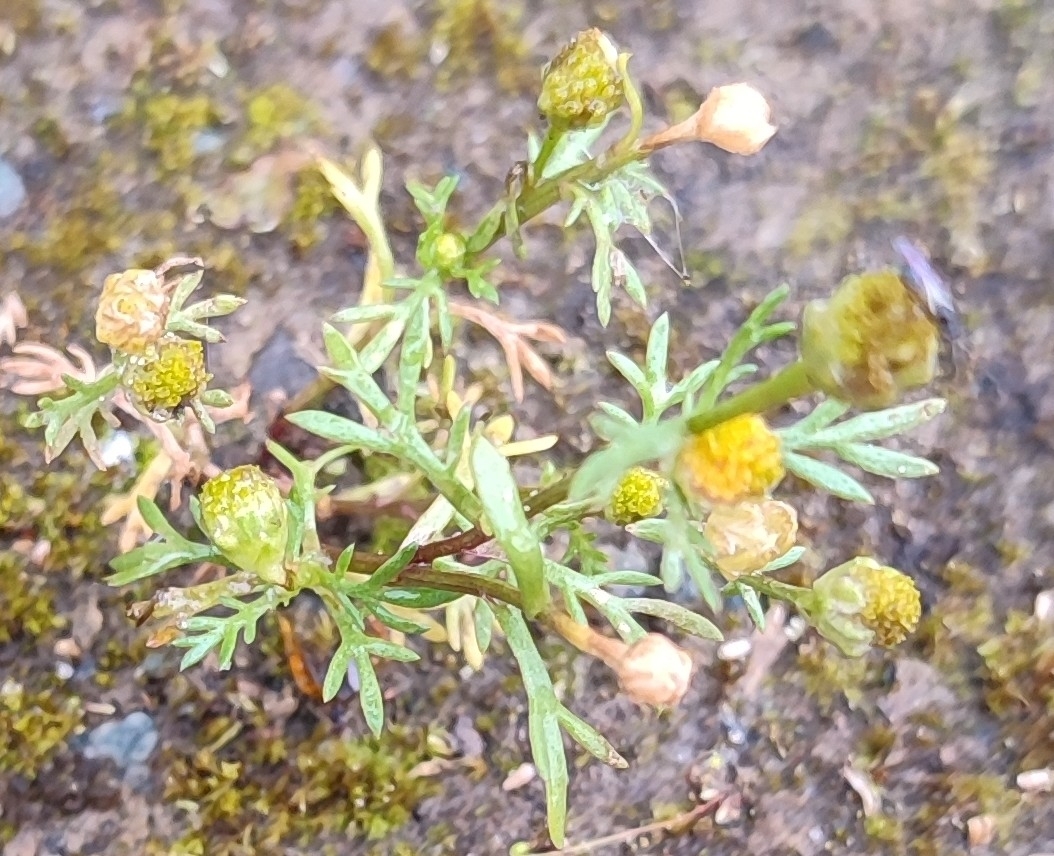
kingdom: Plantae
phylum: Tracheophyta
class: Magnoliopsida
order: Asterales
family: Asteraceae
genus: Matricaria
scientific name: Matricaria discoidea
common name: Disc mayweed
